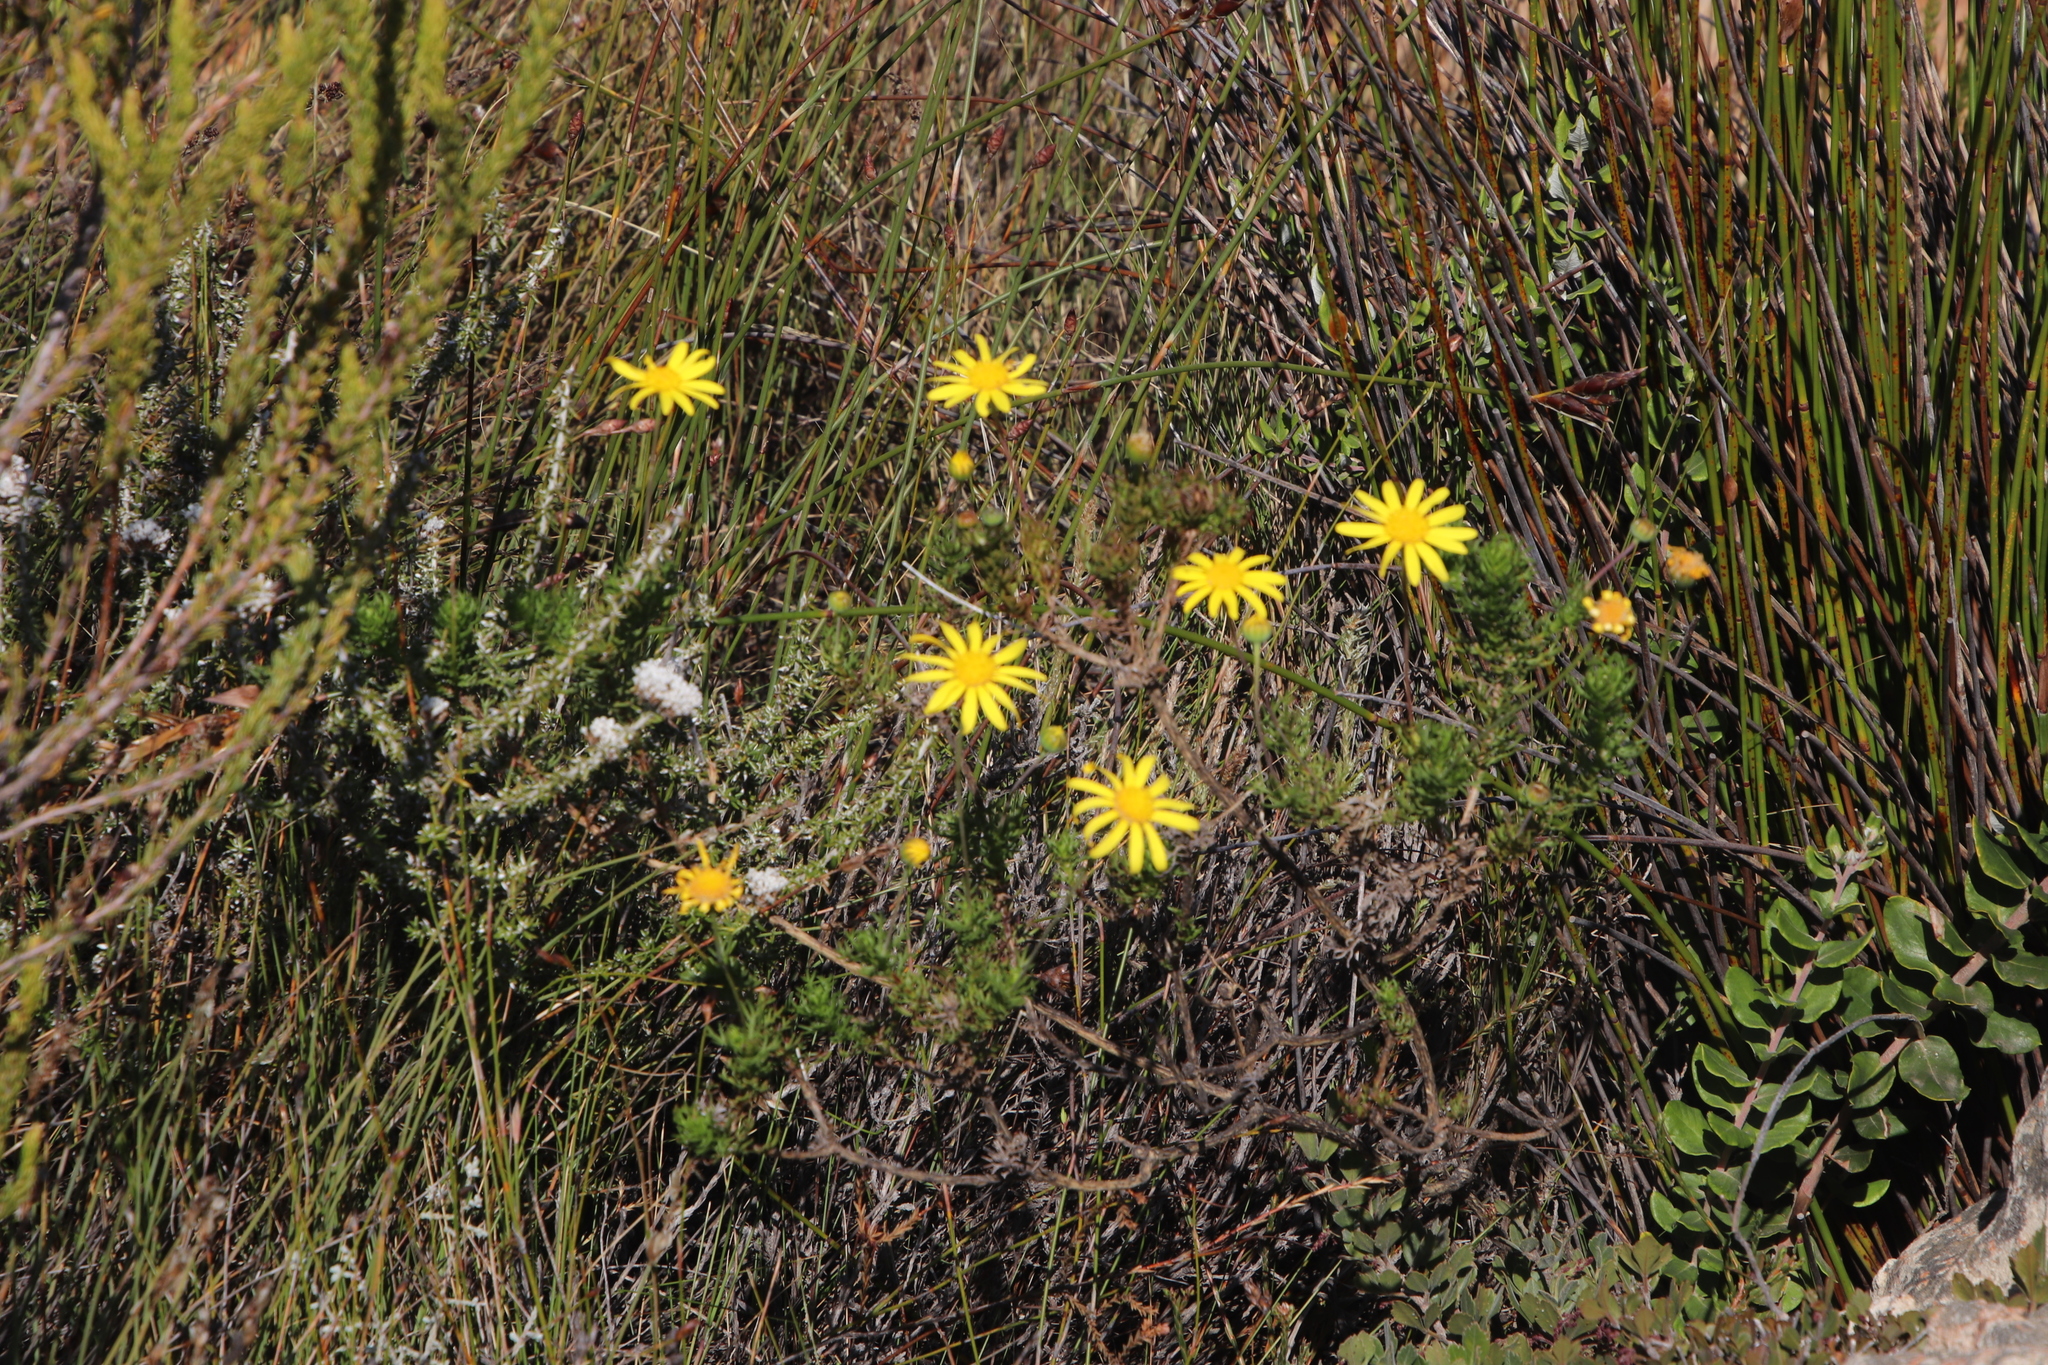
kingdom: Plantae
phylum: Tracheophyta
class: Magnoliopsida
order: Asterales
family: Asteraceae
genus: Euryops
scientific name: Euryops abrotanifolius
